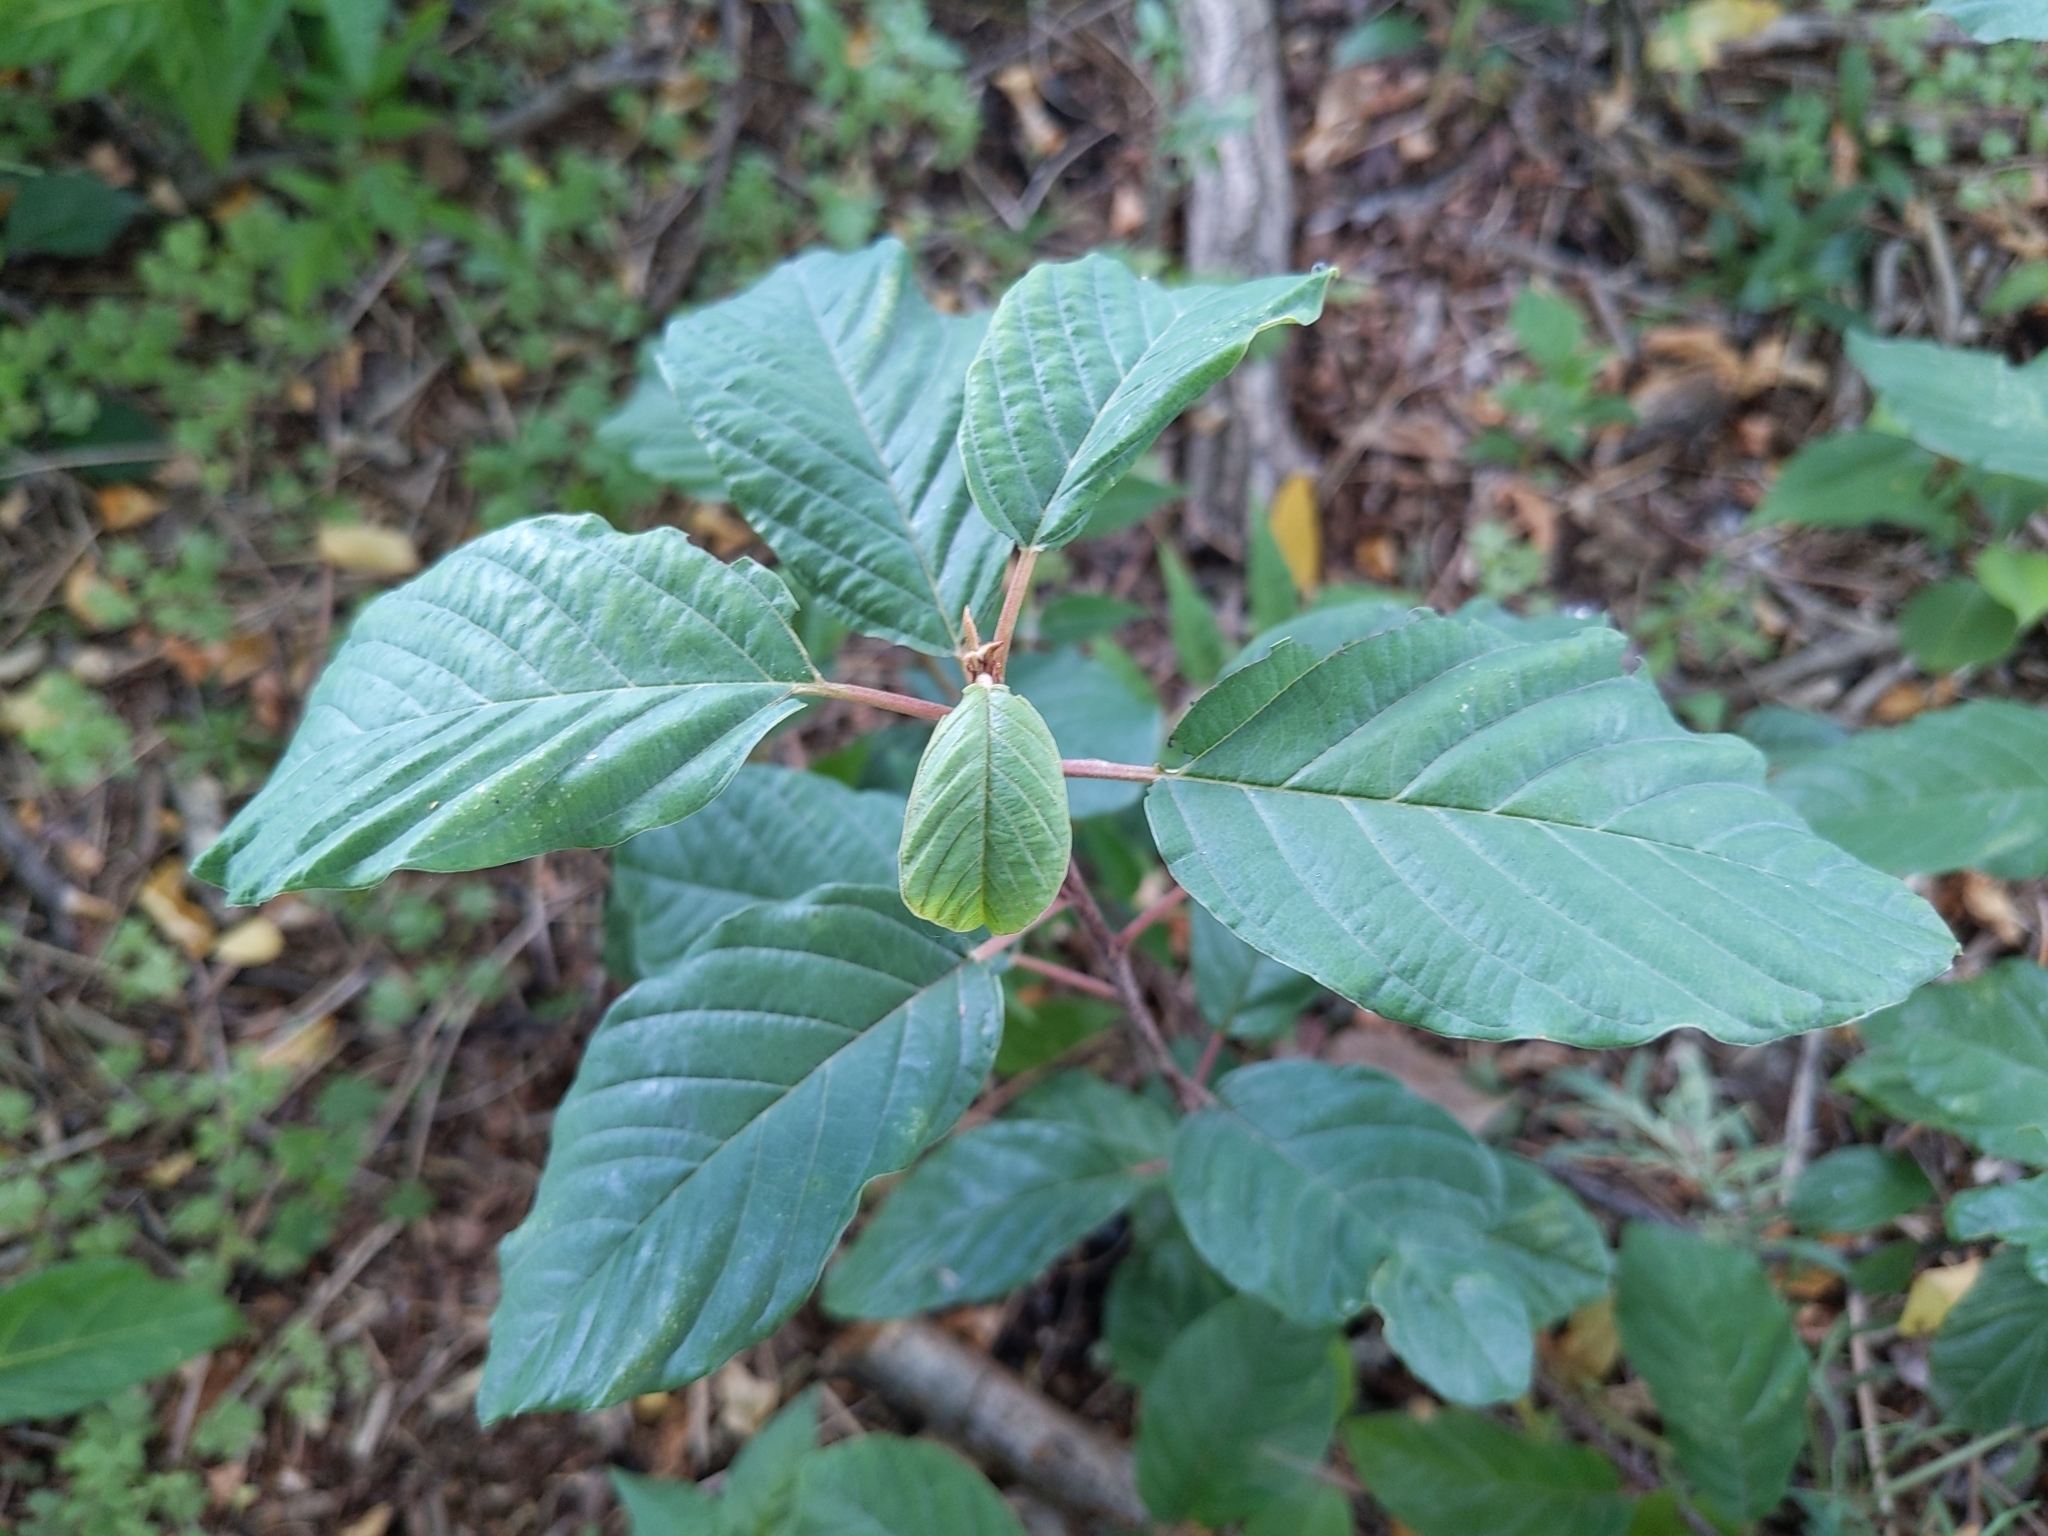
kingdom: Plantae
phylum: Tracheophyta
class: Magnoliopsida
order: Rosales
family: Rhamnaceae
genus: Frangula
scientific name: Frangula alnus
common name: Alder buckthorn
